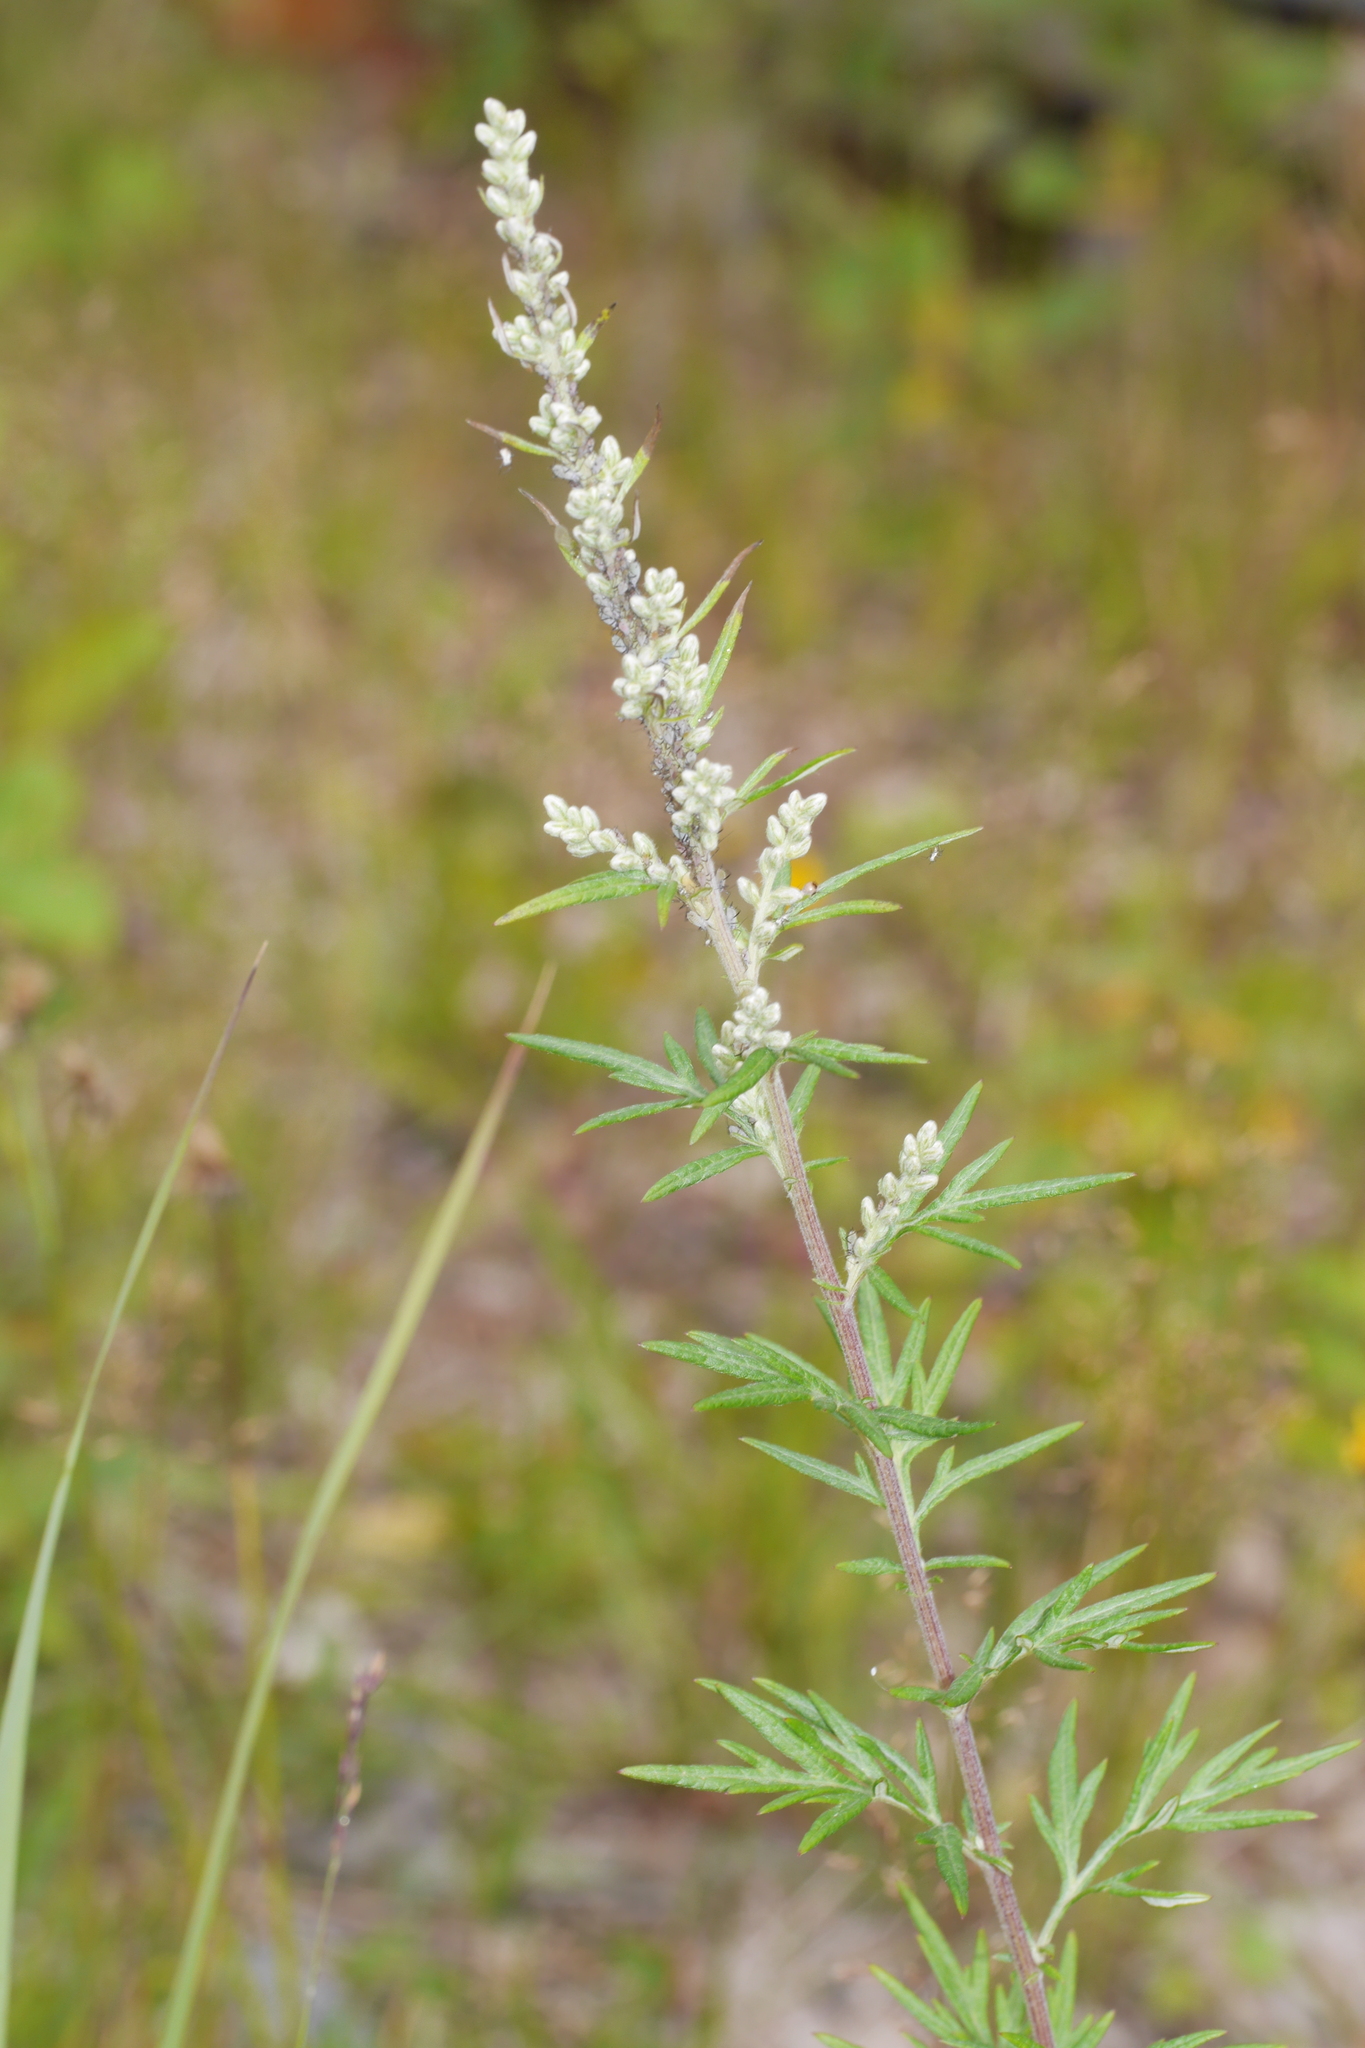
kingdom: Plantae
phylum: Tracheophyta
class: Magnoliopsida
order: Asterales
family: Asteraceae
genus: Artemisia
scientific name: Artemisia vulgaris
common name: Mugwort
